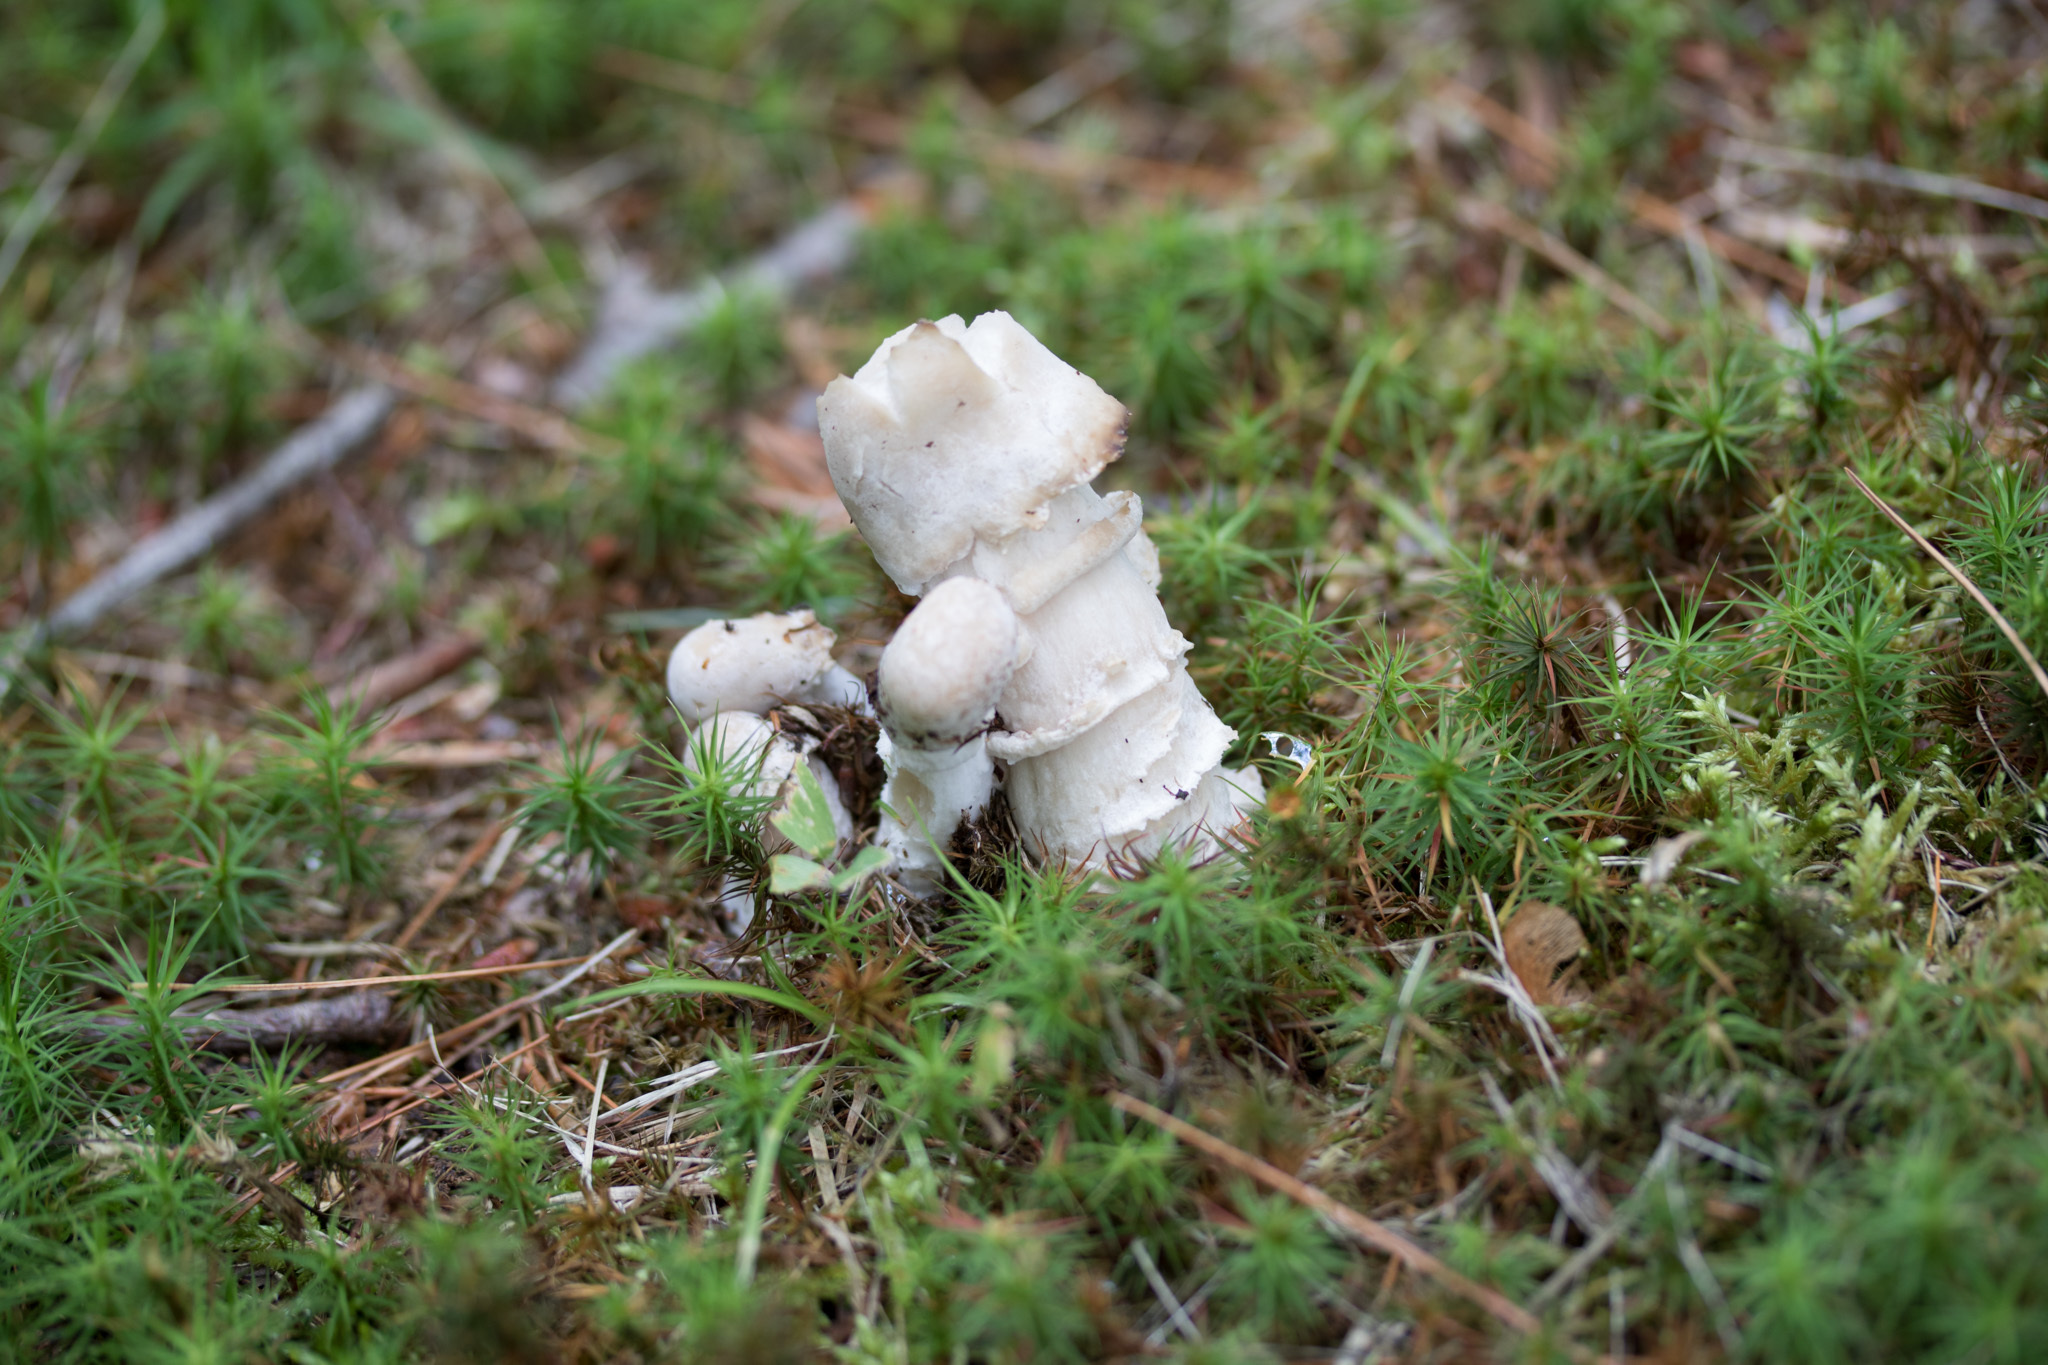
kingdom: Fungi
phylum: Ascomycota
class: Sordariomycetes
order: Hypocreales
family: Hypocreaceae
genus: Hypomyces
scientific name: Hypomyces hyalinus
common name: Amanita mold
